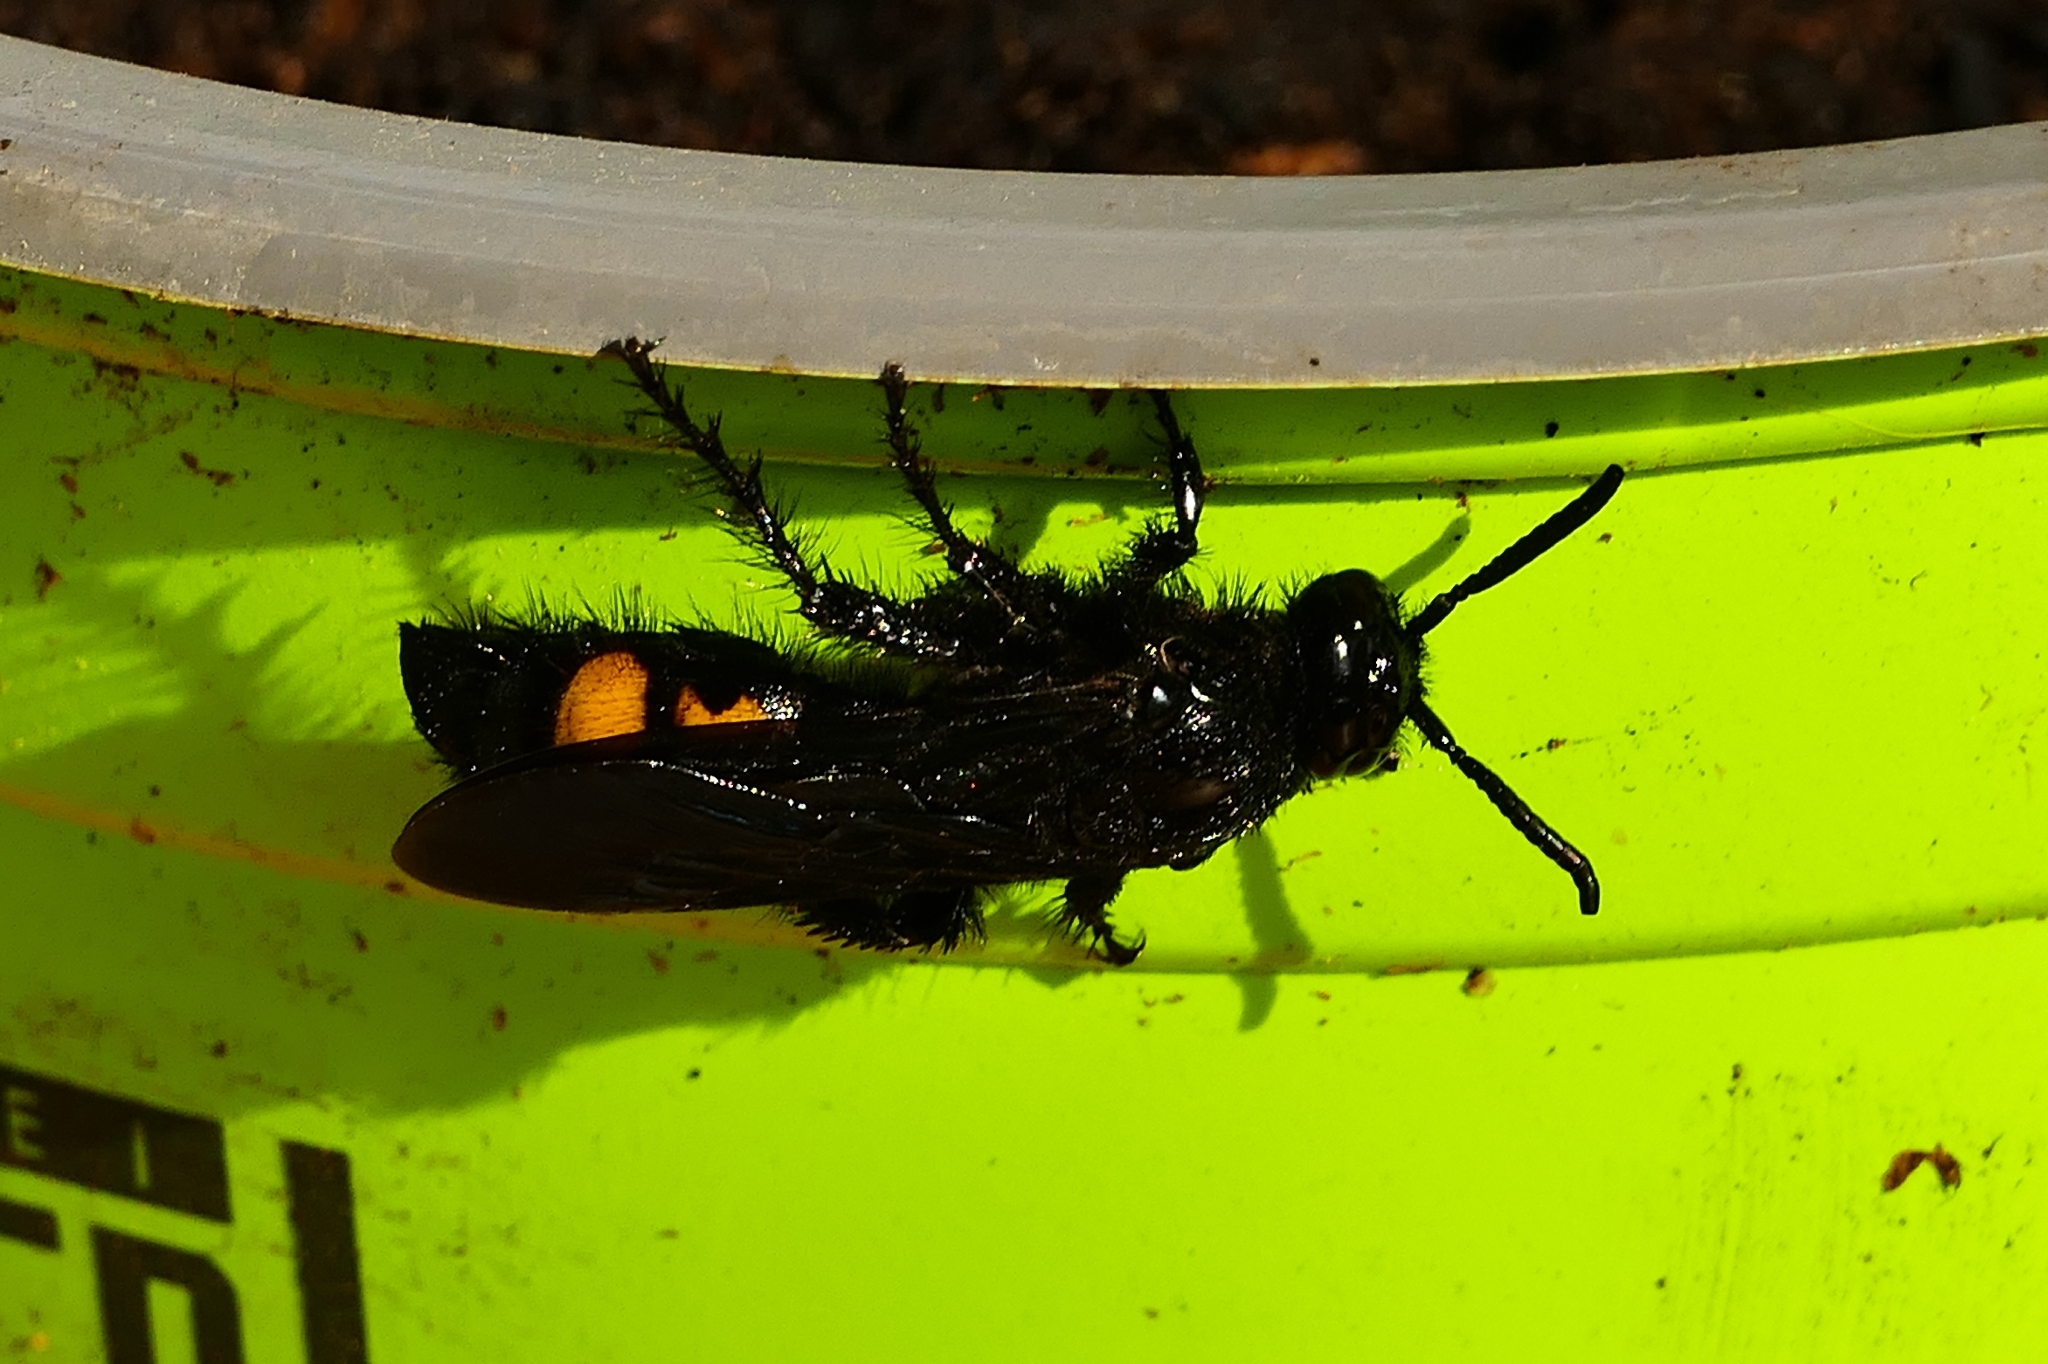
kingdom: Animalia
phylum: Arthropoda
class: Insecta
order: Hymenoptera
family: Scoliidae
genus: Scolia
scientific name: Scolia hirta
